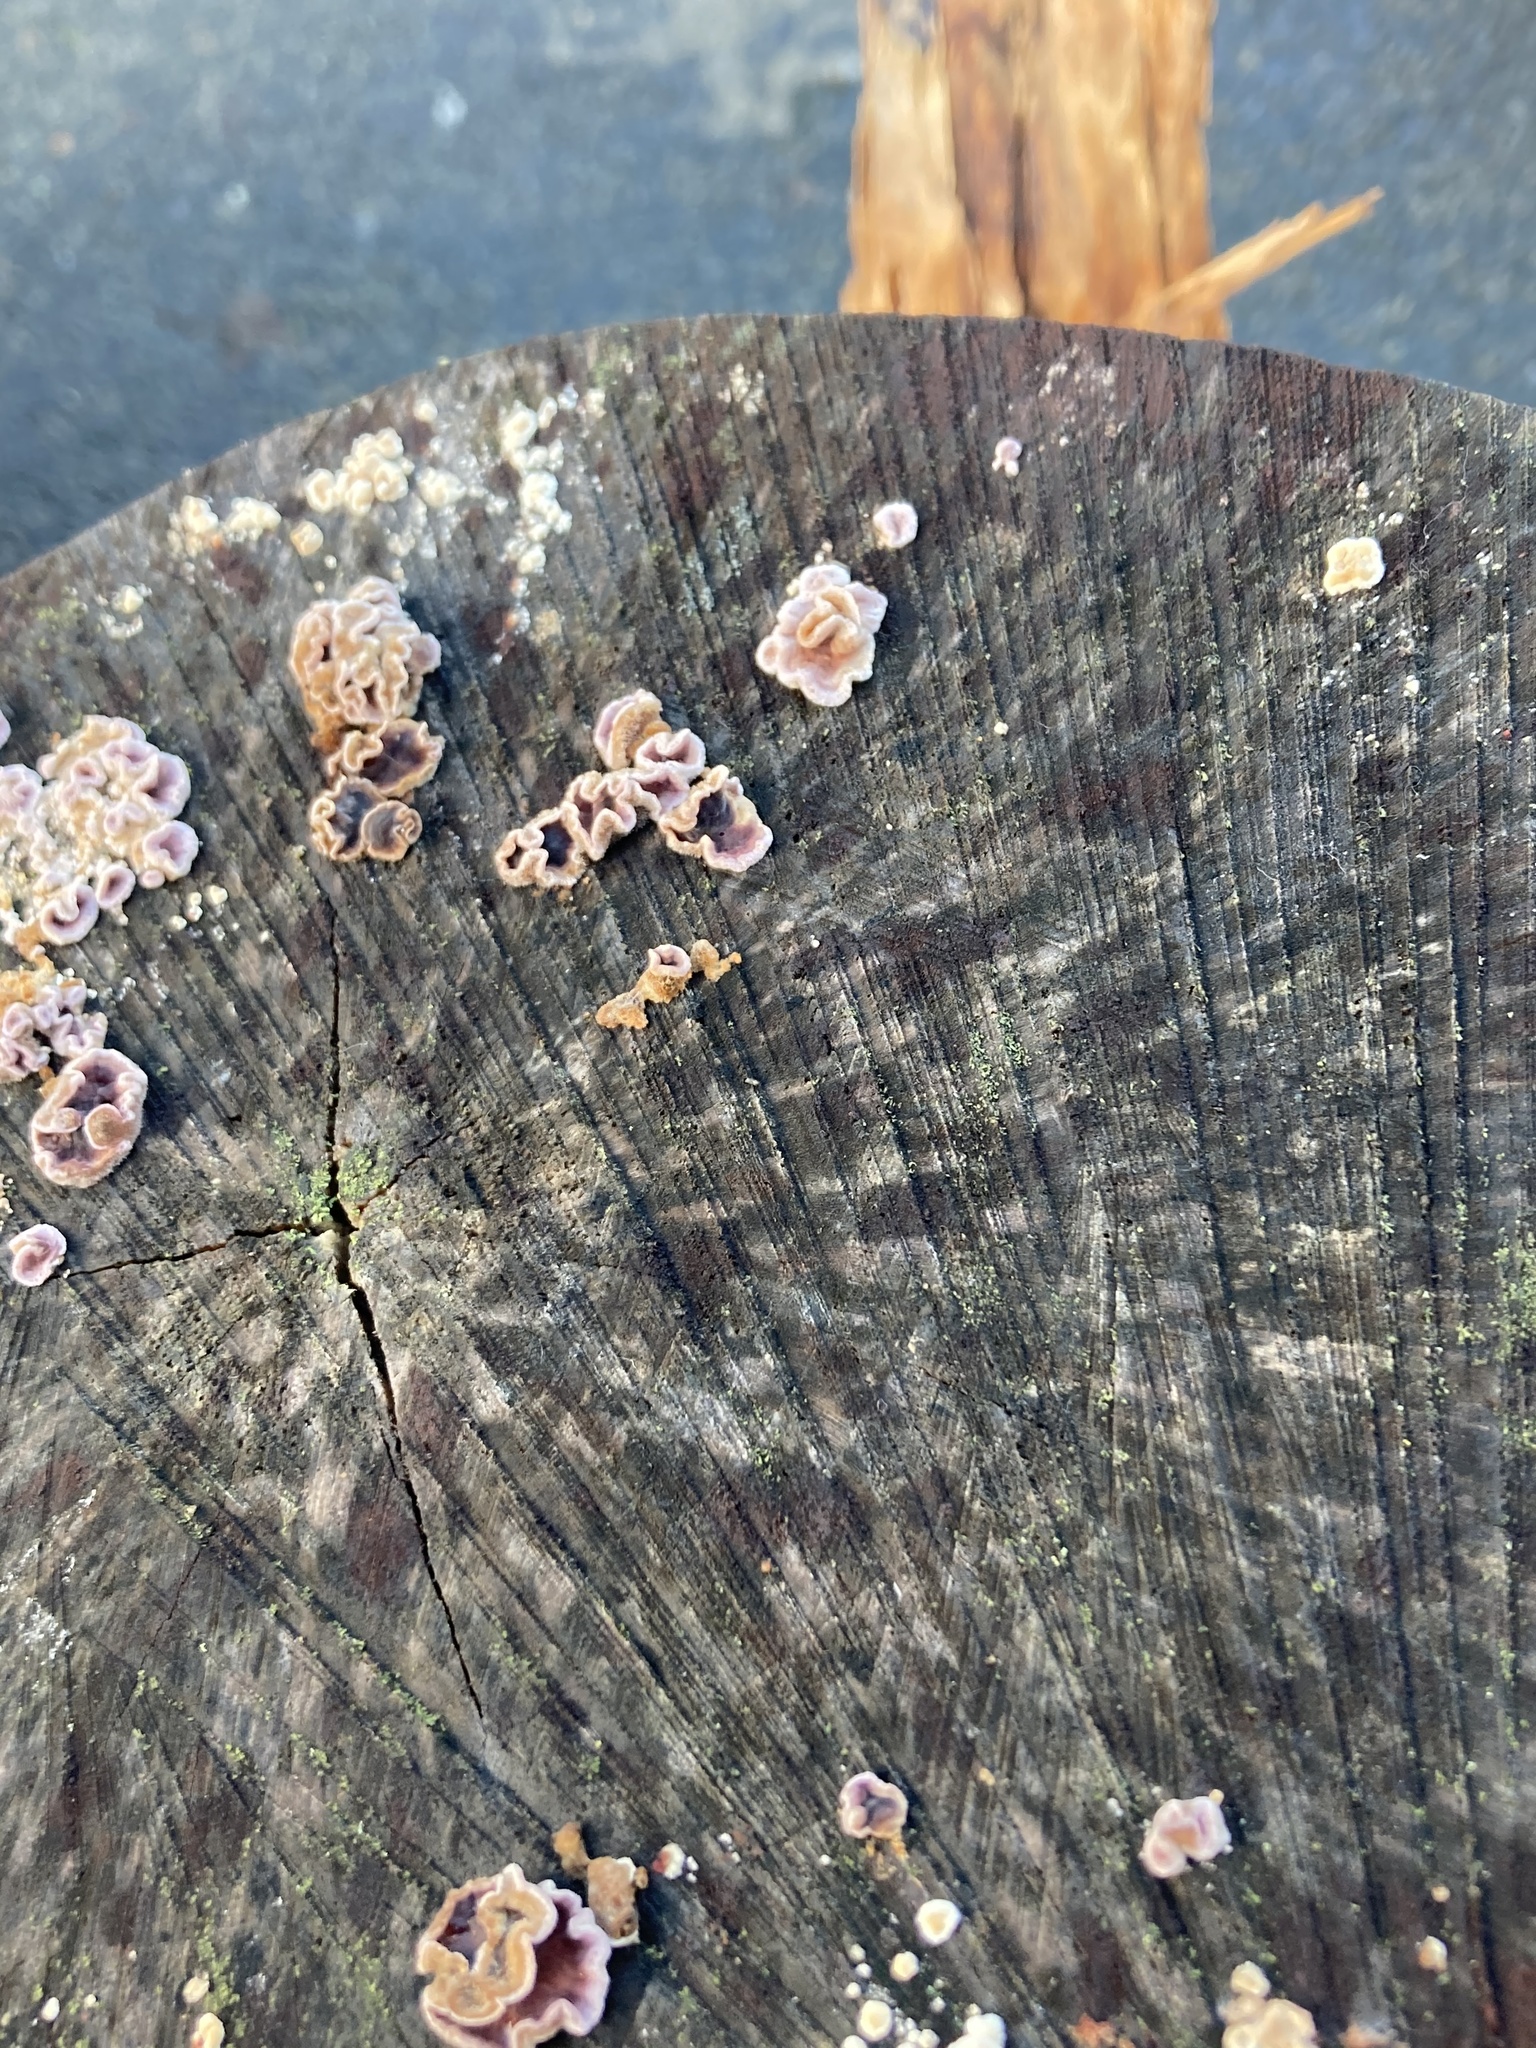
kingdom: Fungi
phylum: Basidiomycota
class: Agaricomycetes
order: Agaricales
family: Cyphellaceae
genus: Chondrostereum
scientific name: Chondrostereum purpureum
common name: Silver leaf disease
